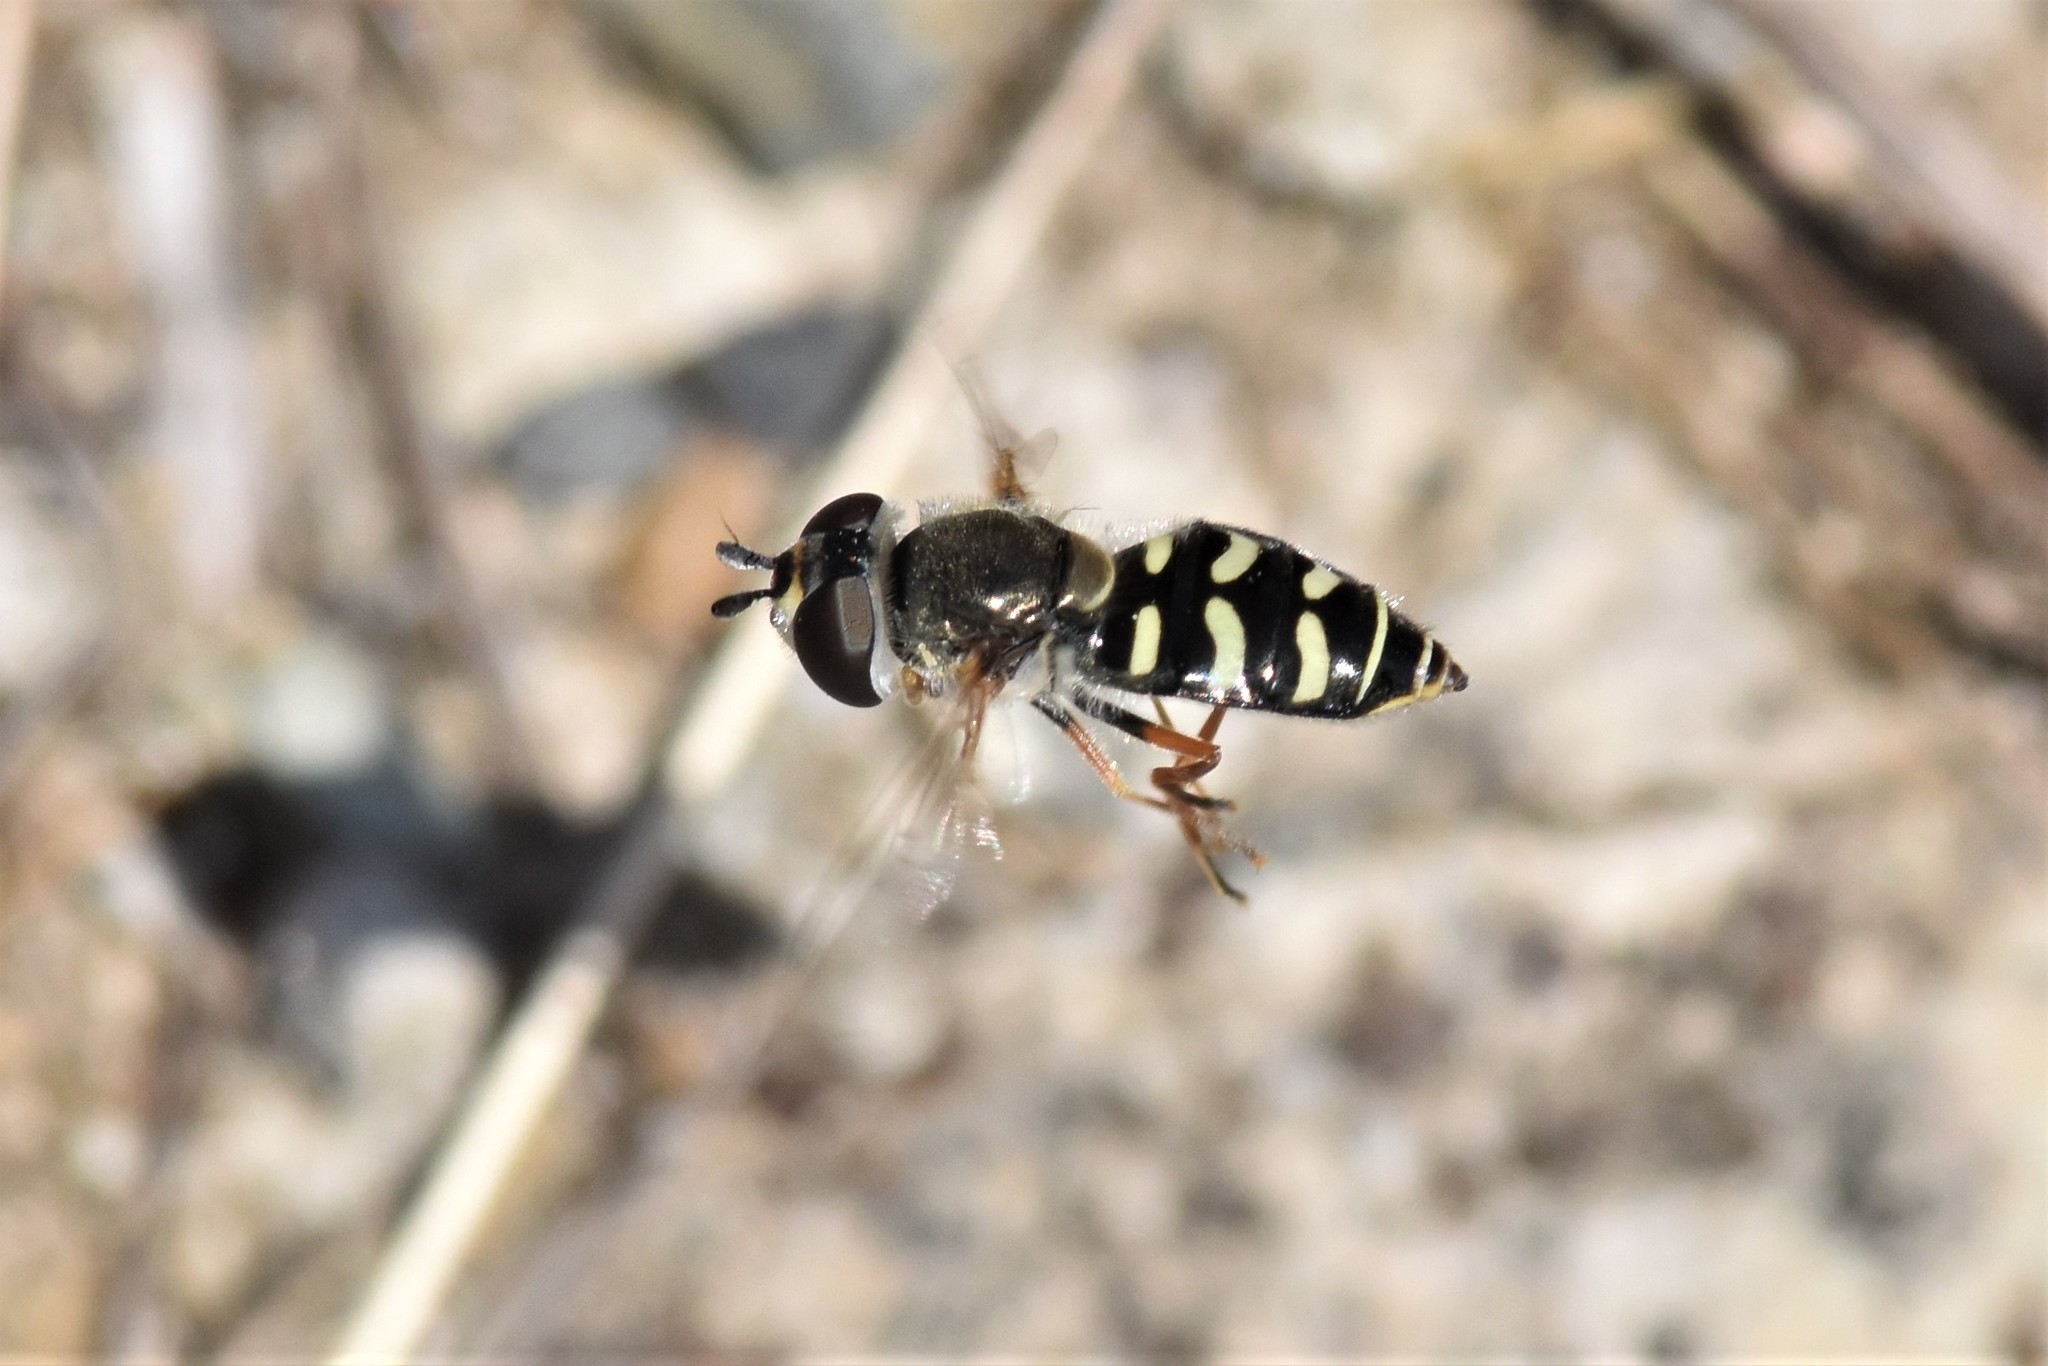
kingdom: Animalia
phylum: Arthropoda
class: Insecta
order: Diptera
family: Syrphidae
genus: Eupeodes
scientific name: Eupeodes volucris
